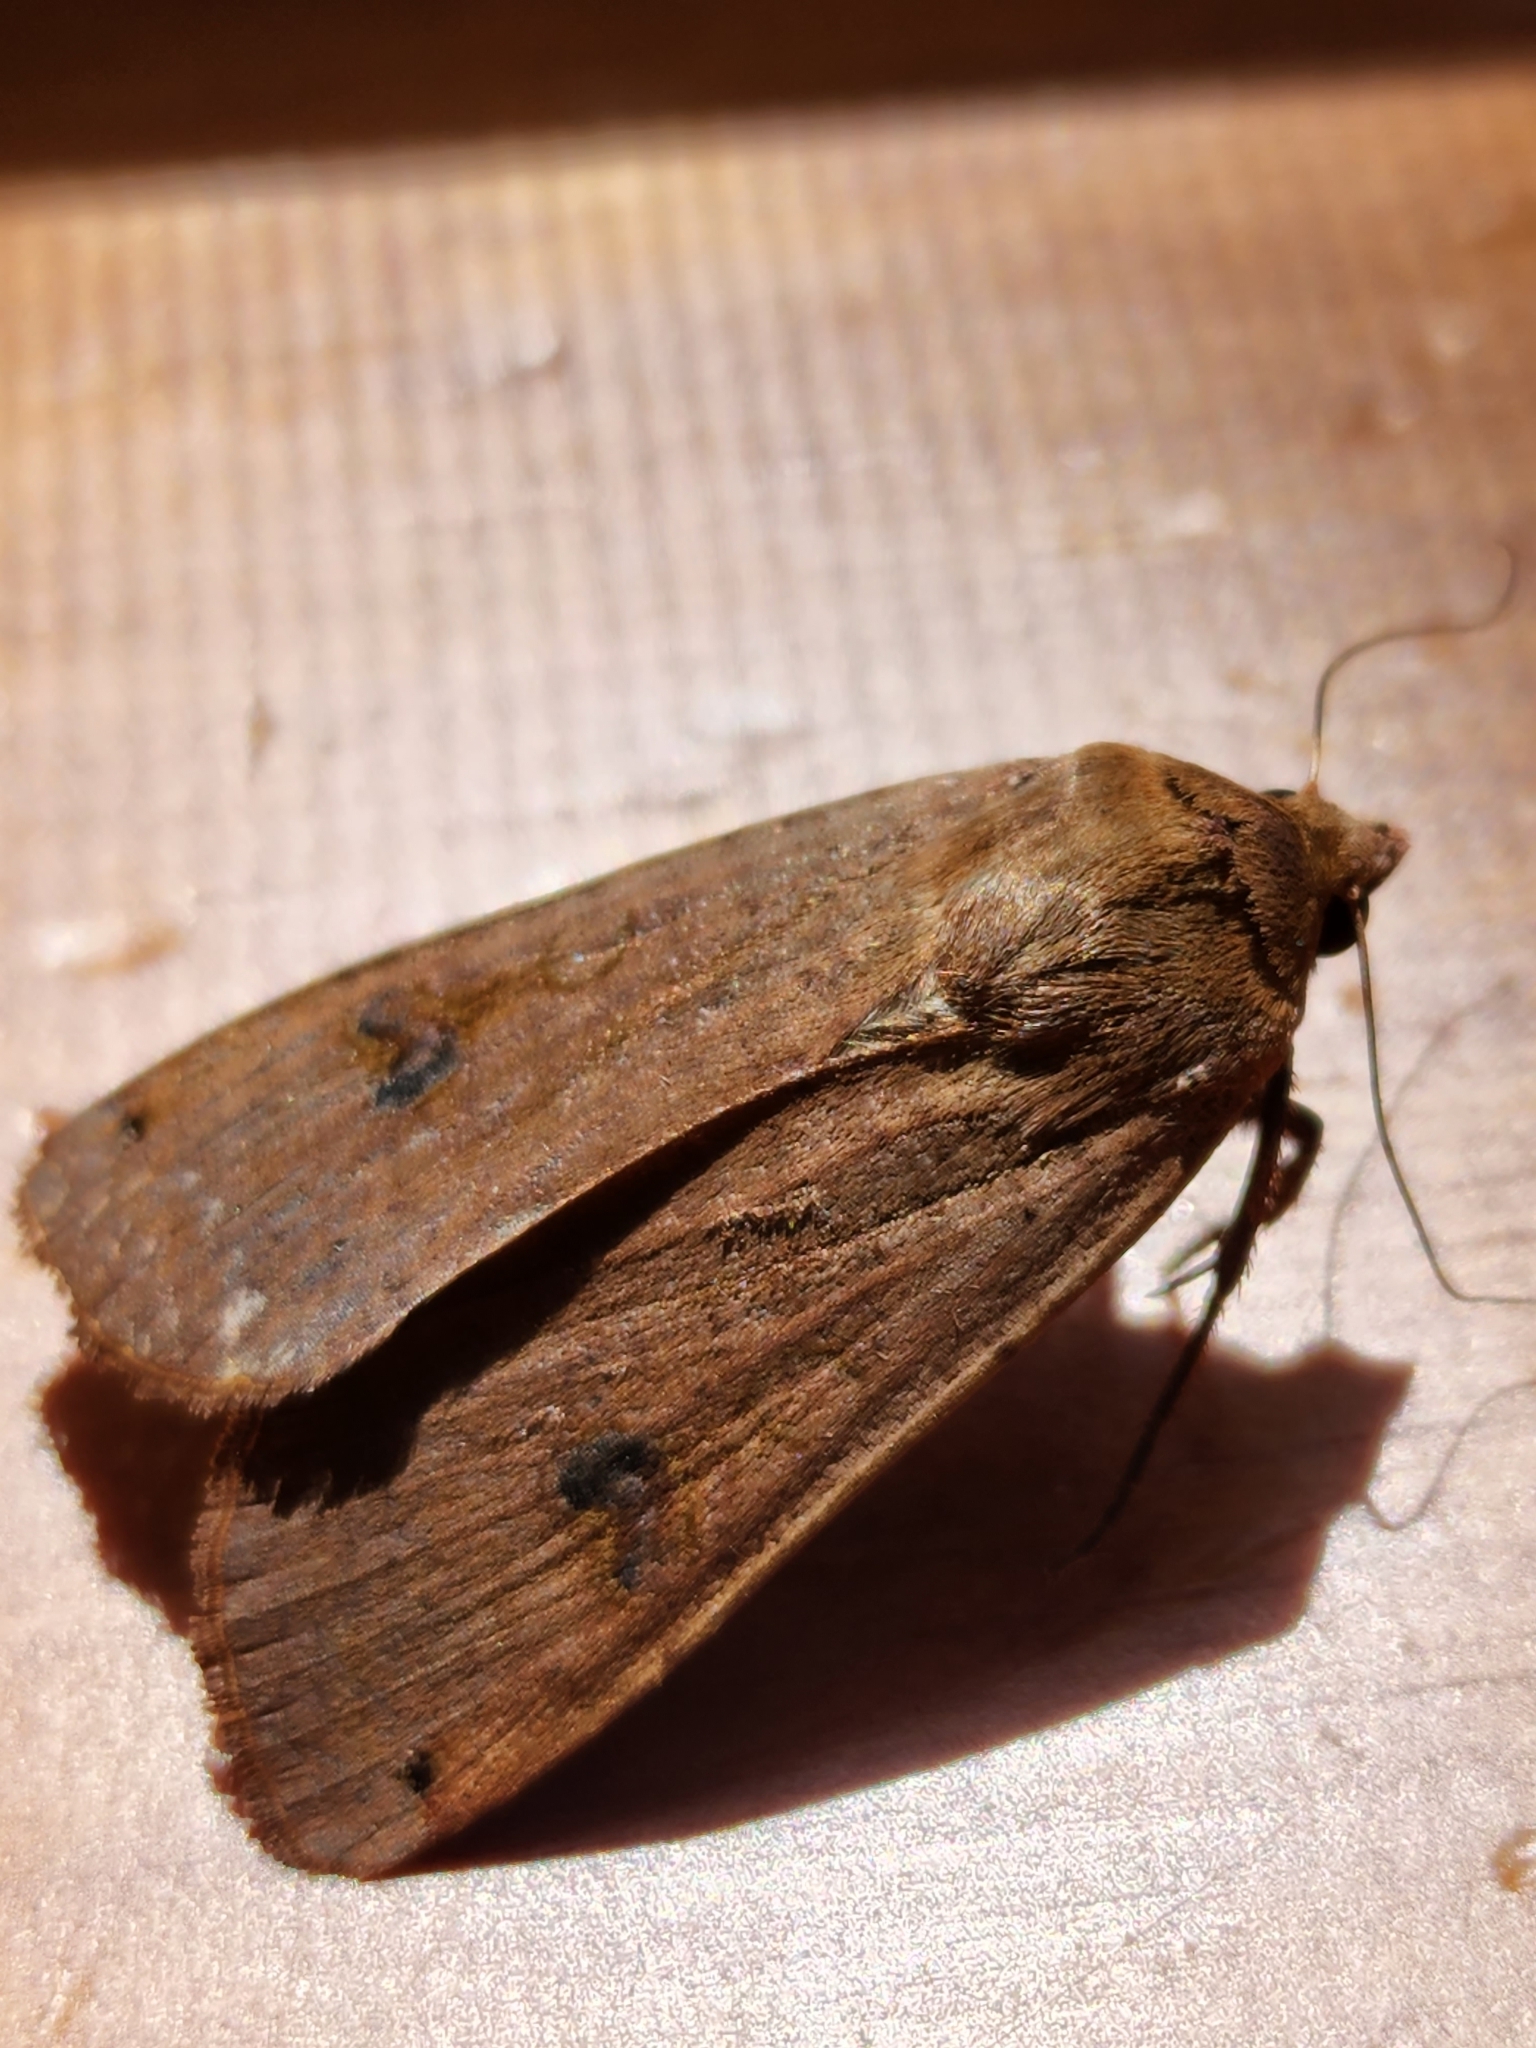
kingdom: Animalia
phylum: Arthropoda
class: Insecta
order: Lepidoptera
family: Noctuidae
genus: Noctua
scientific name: Noctua pronuba
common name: Large yellow underwing
